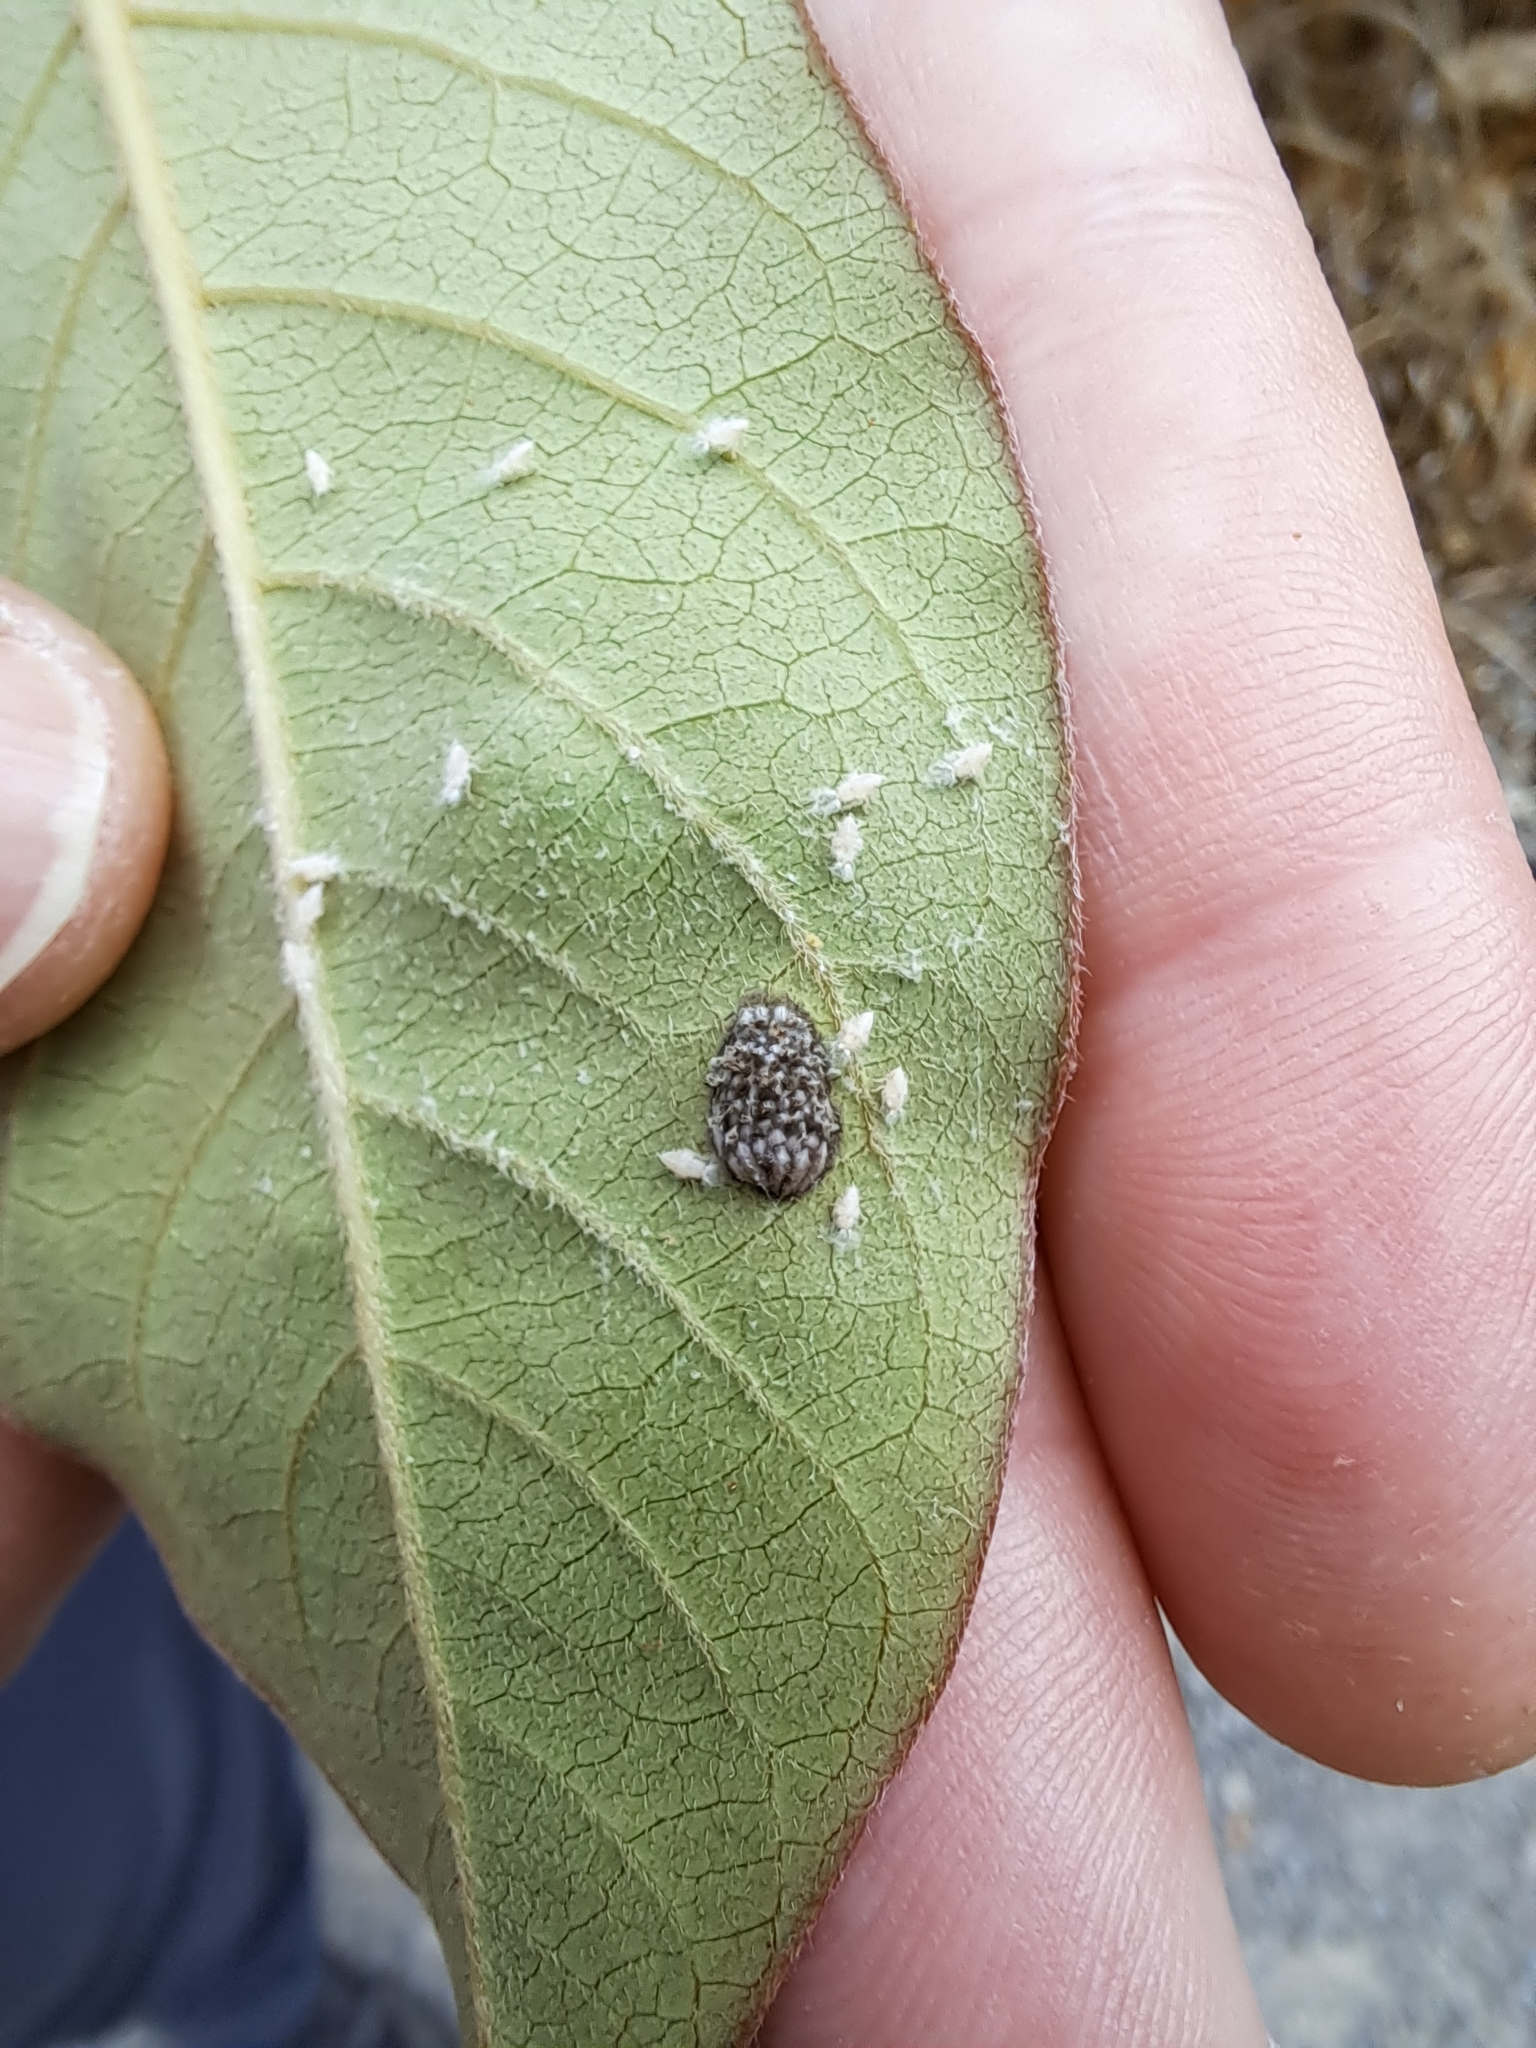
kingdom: Animalia
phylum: Arthropoda
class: Insecta
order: Hemiptera
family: Flatidae
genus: Siphanta
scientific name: Siphanta acuta
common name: Torpedo bug
